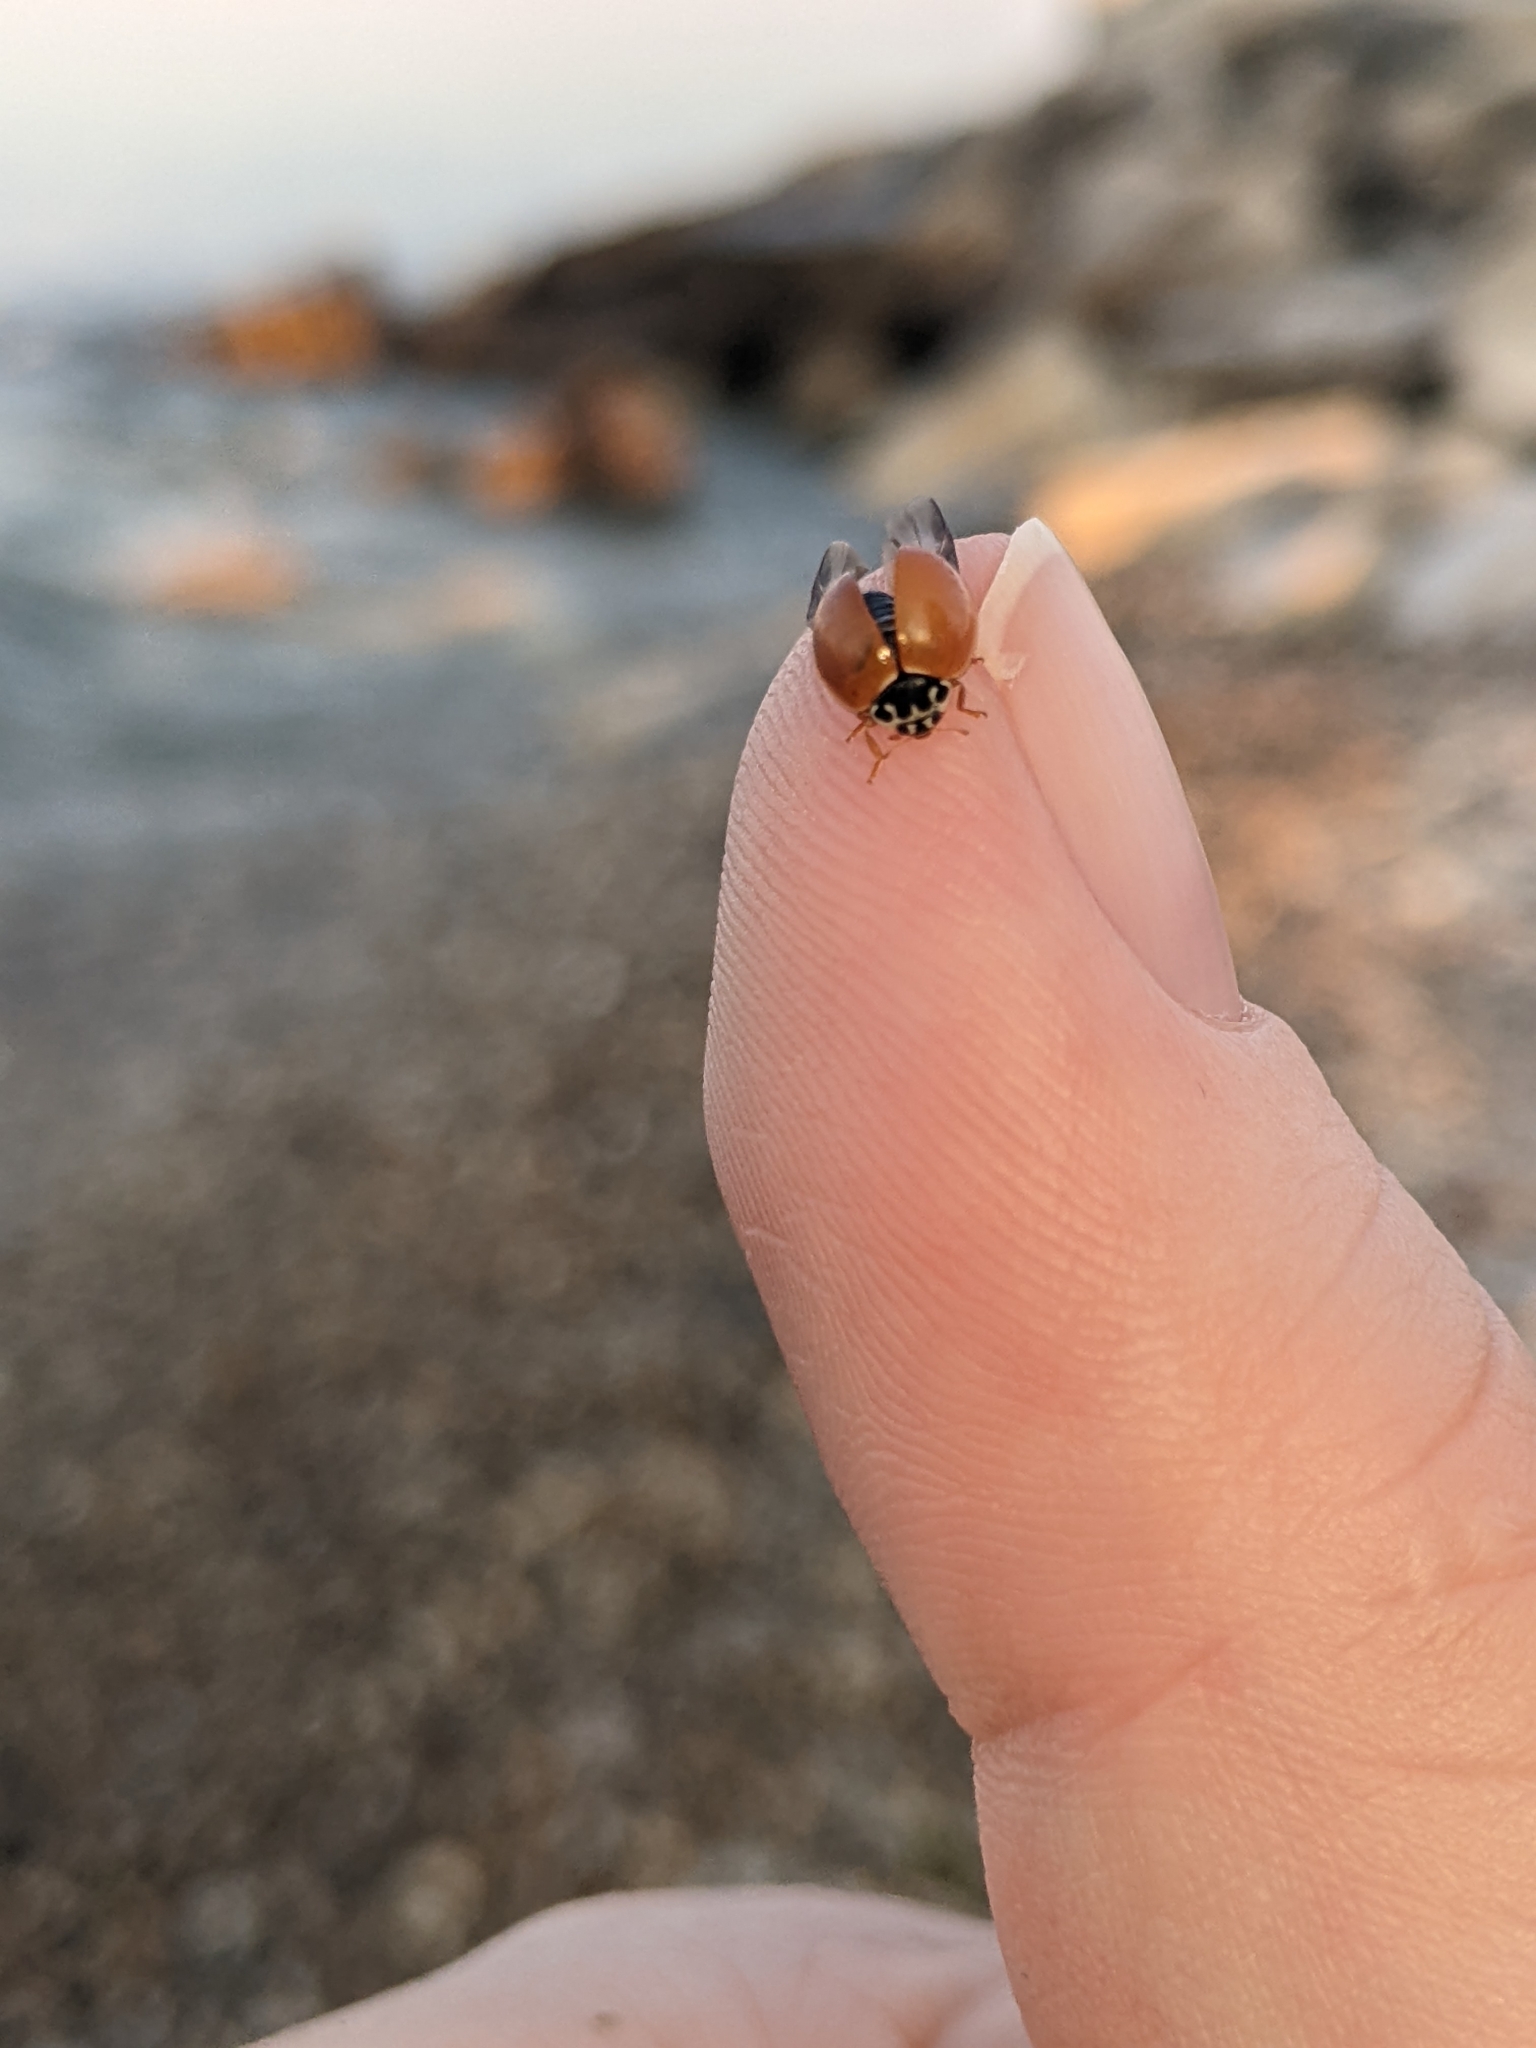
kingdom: Animalia
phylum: Arthropoda
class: Insecta
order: Coleoptera
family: Coccinellidae
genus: Cycloneda
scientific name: Cycloneda munda
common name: Polished lady beetle
